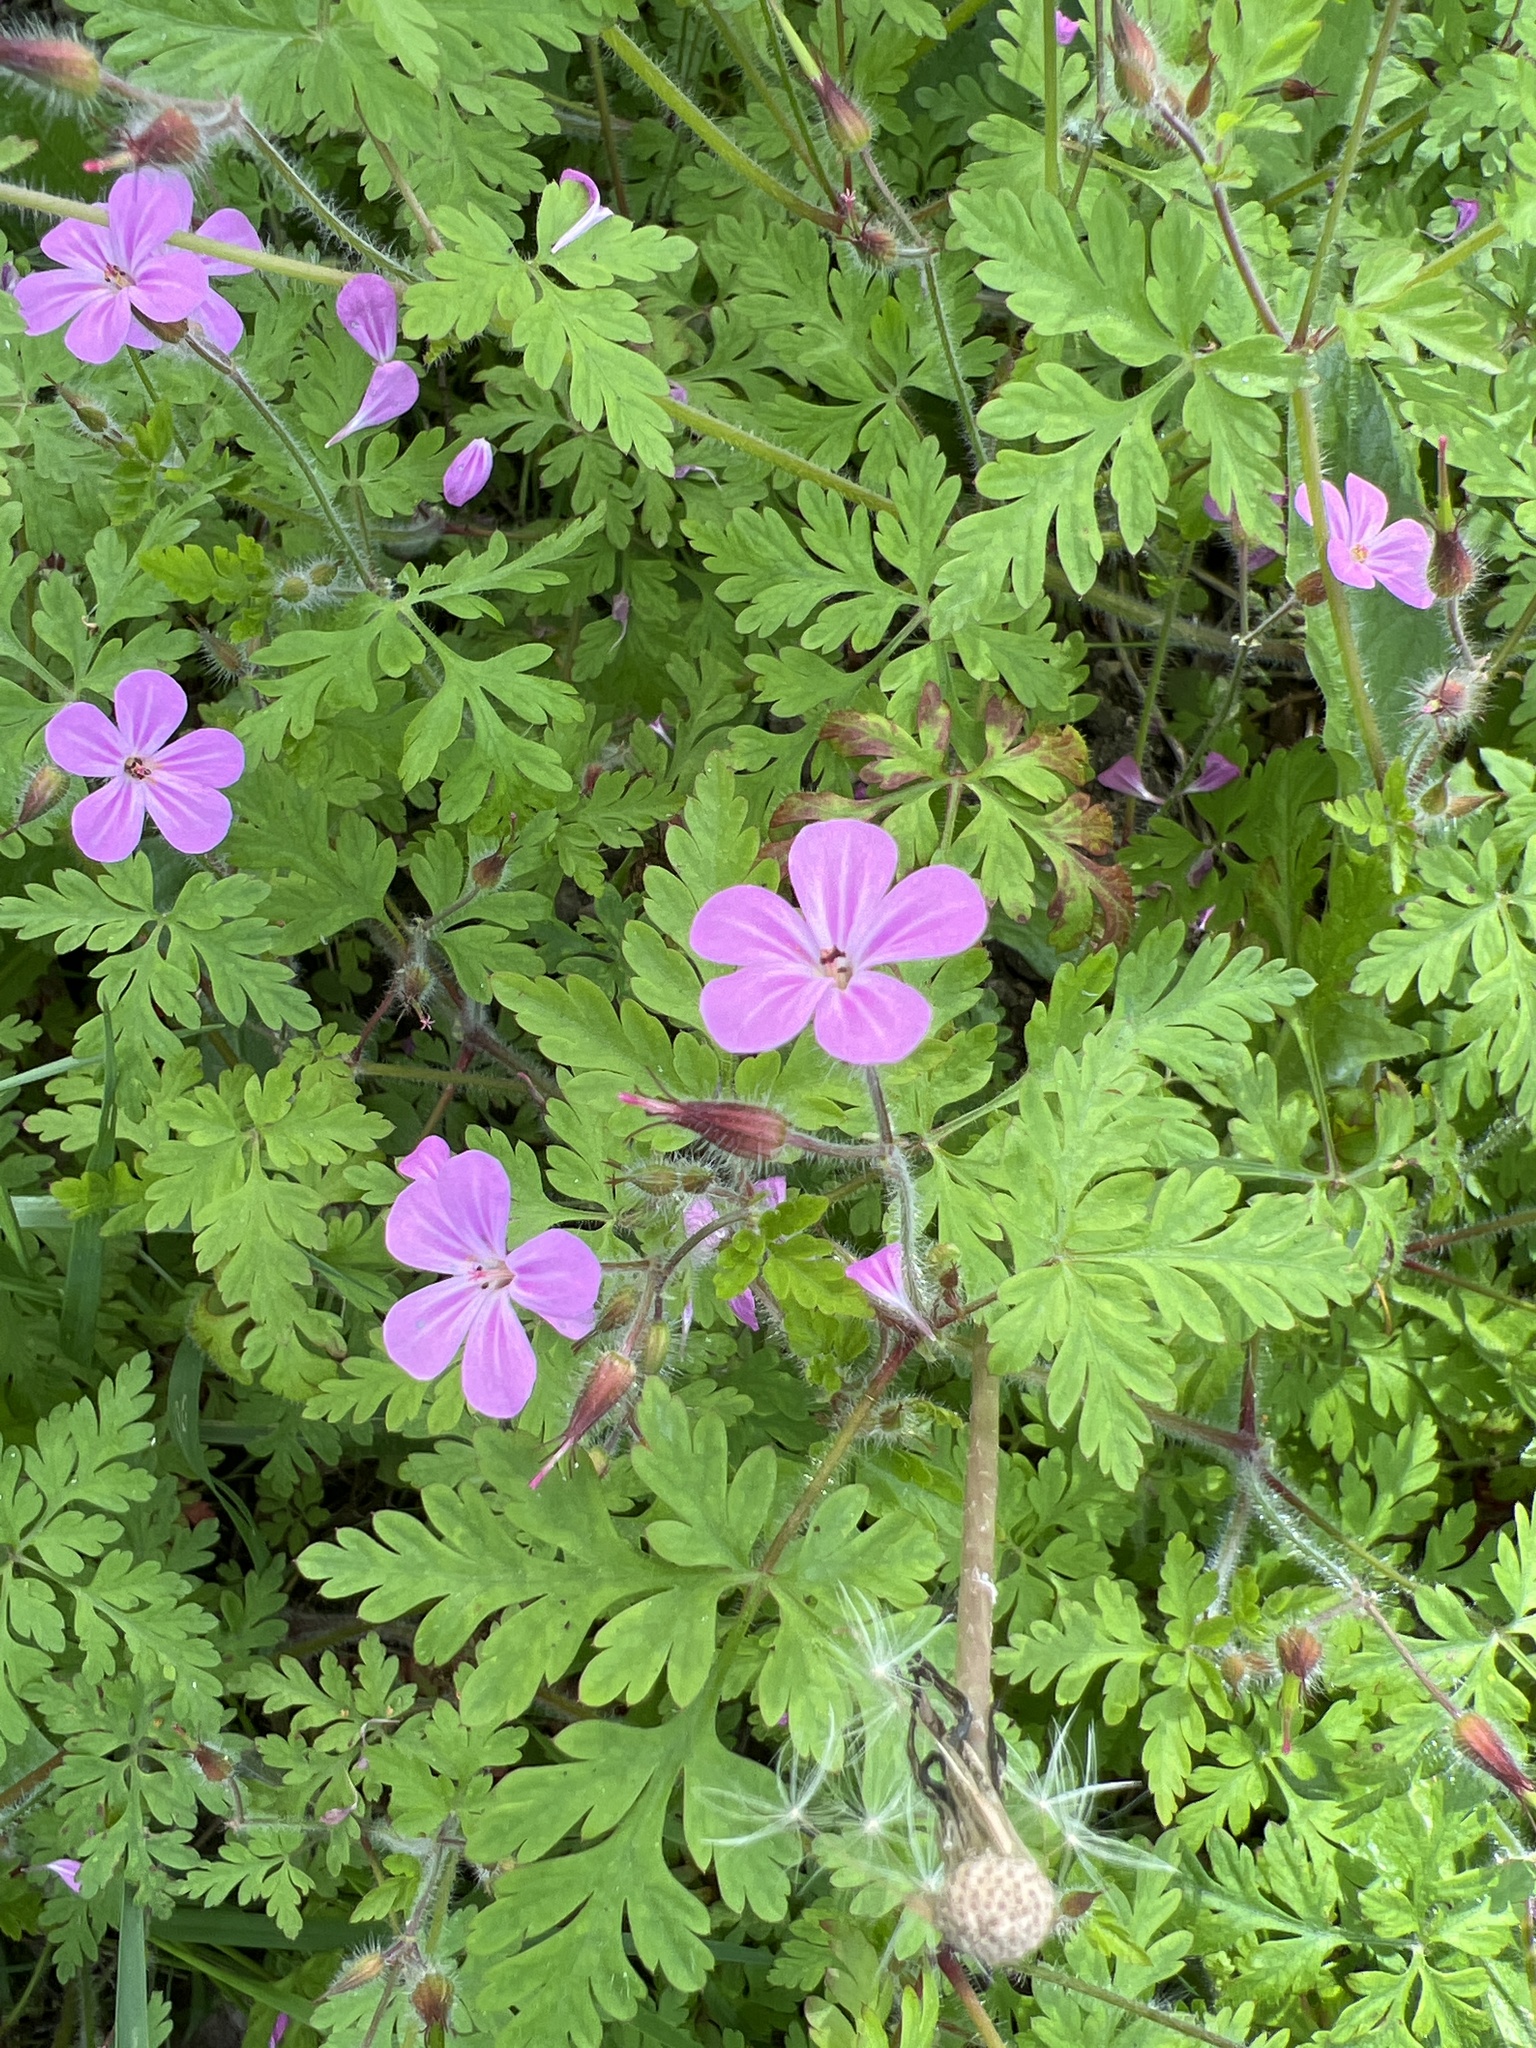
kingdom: Plantae
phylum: Tracheophyta
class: Magnoliopsida
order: Geraniales
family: Geraniaceae
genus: Geranium
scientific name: Geranium robertianum
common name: Herb-robert
